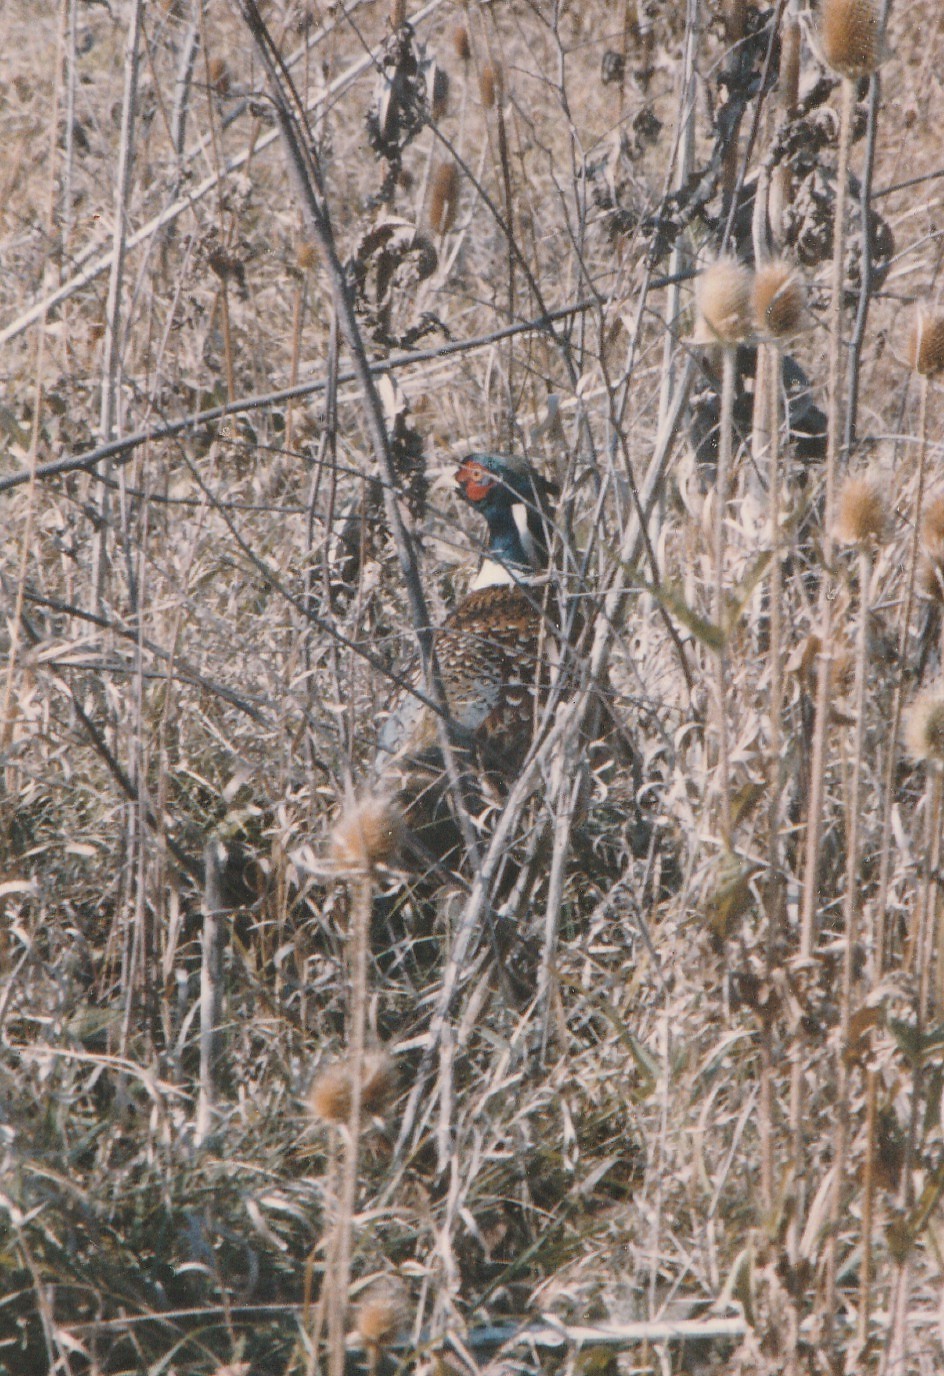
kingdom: Animalia
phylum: Chordata
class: Aves
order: Galliformes
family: Phasianidae
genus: Phasianus
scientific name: Phasianus colchicus
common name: Common pheasant
